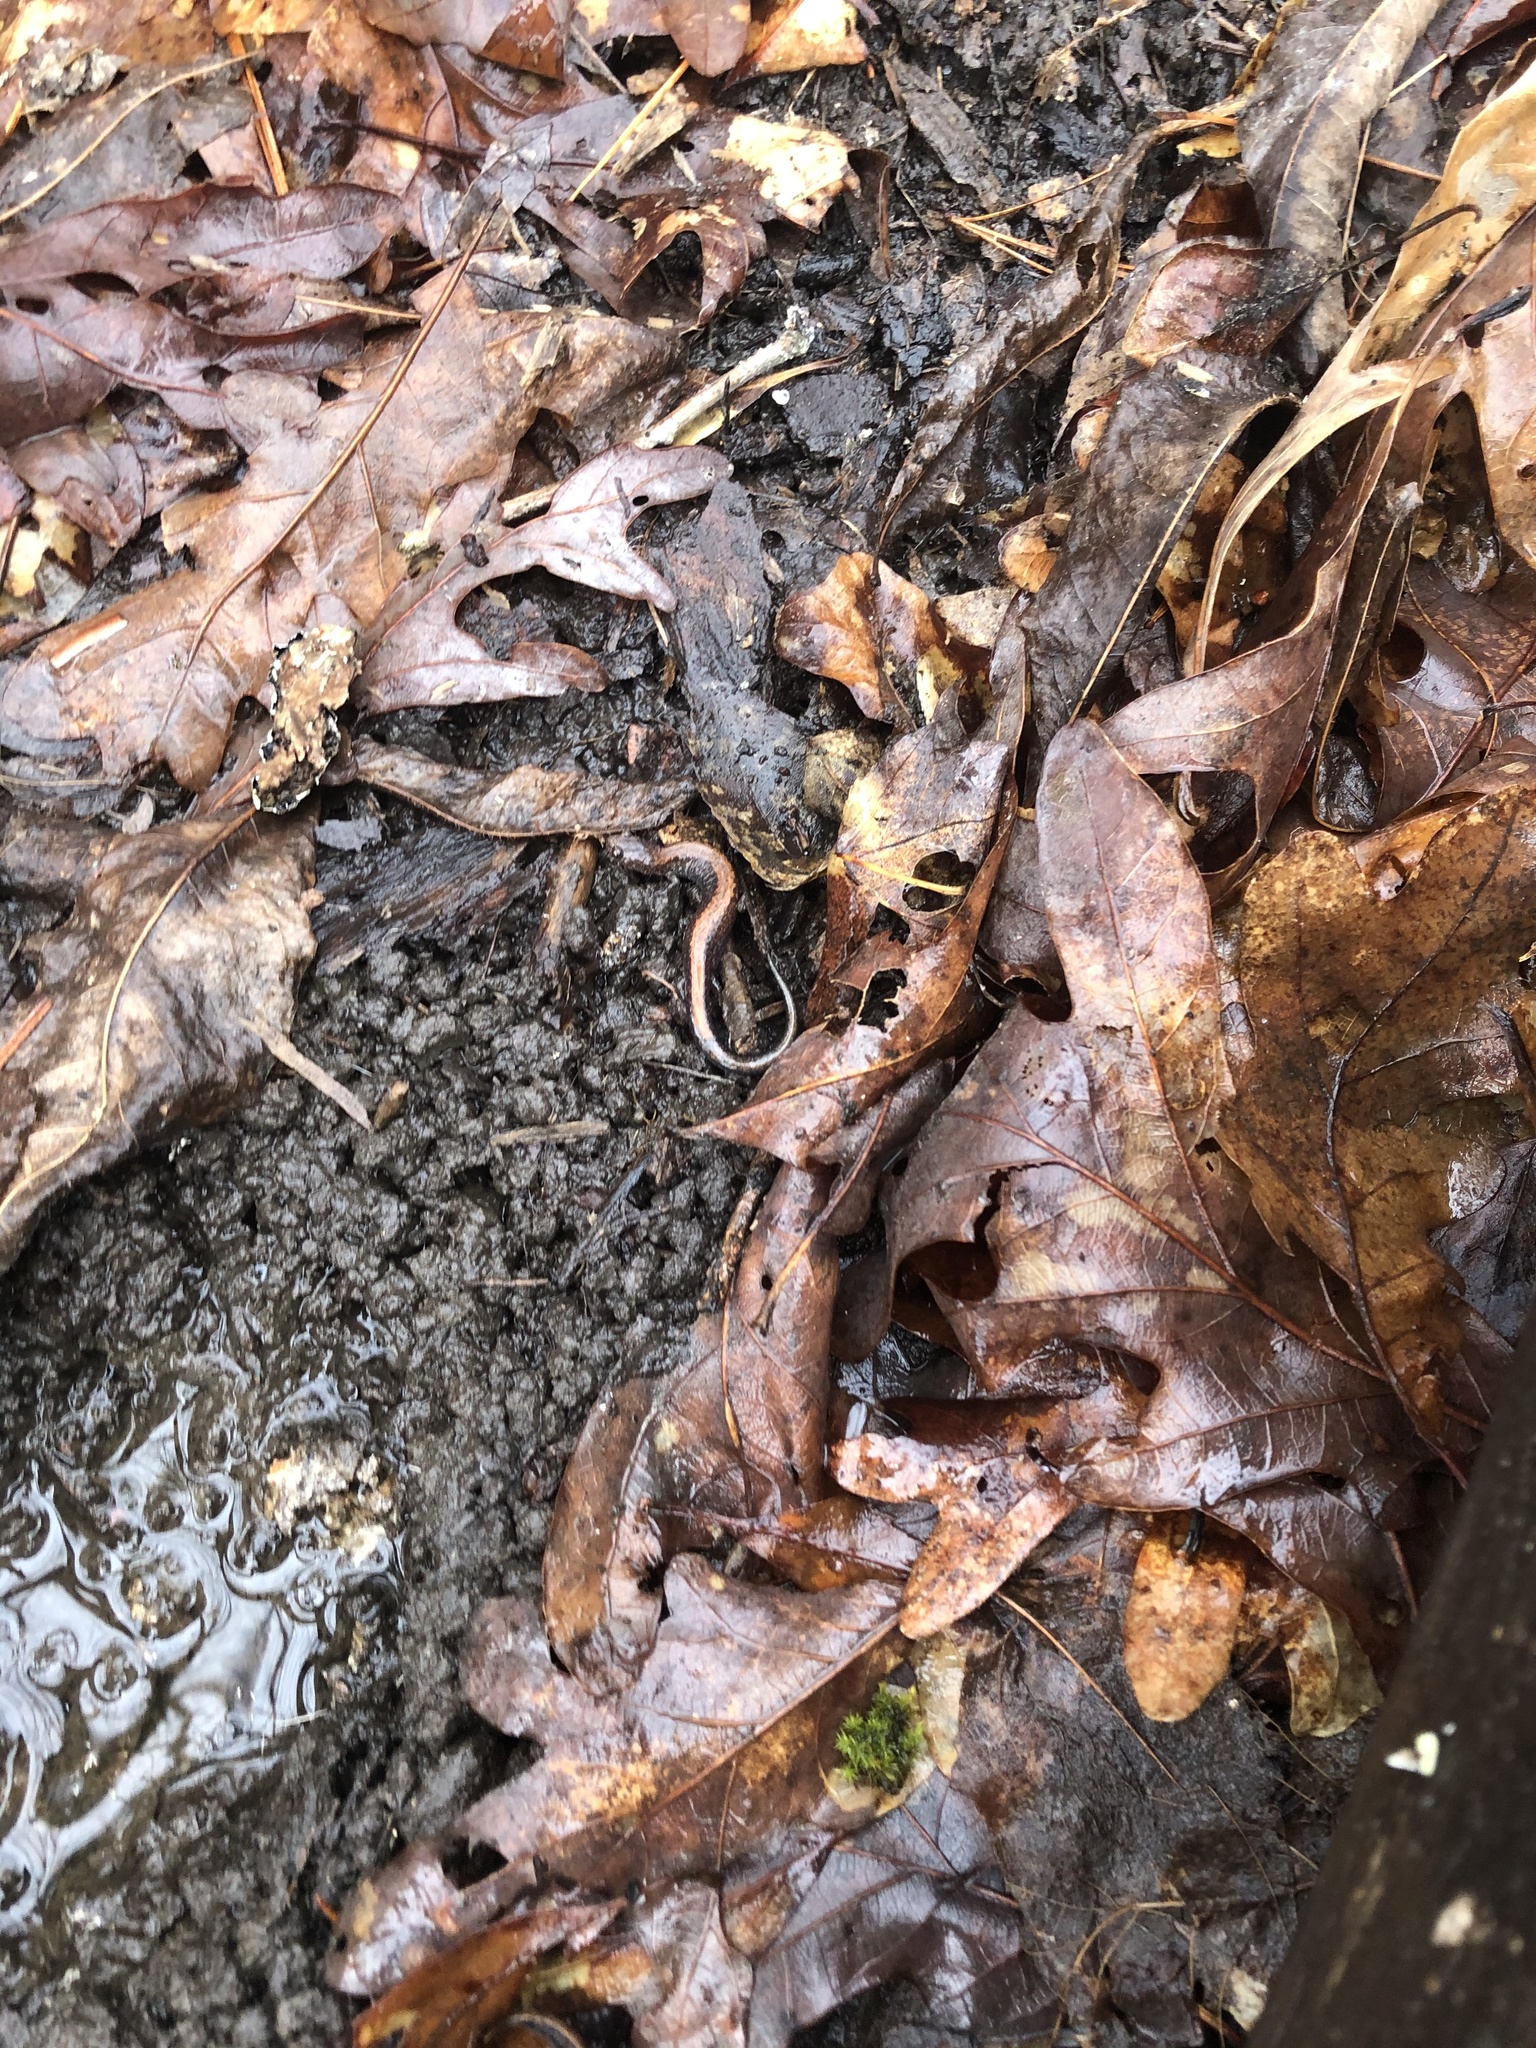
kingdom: Animalia
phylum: Chordata
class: Amphibia
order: Caudata
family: Plethodontidae
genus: Plethodon
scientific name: Plethodon cinereus
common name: Redback salamander
